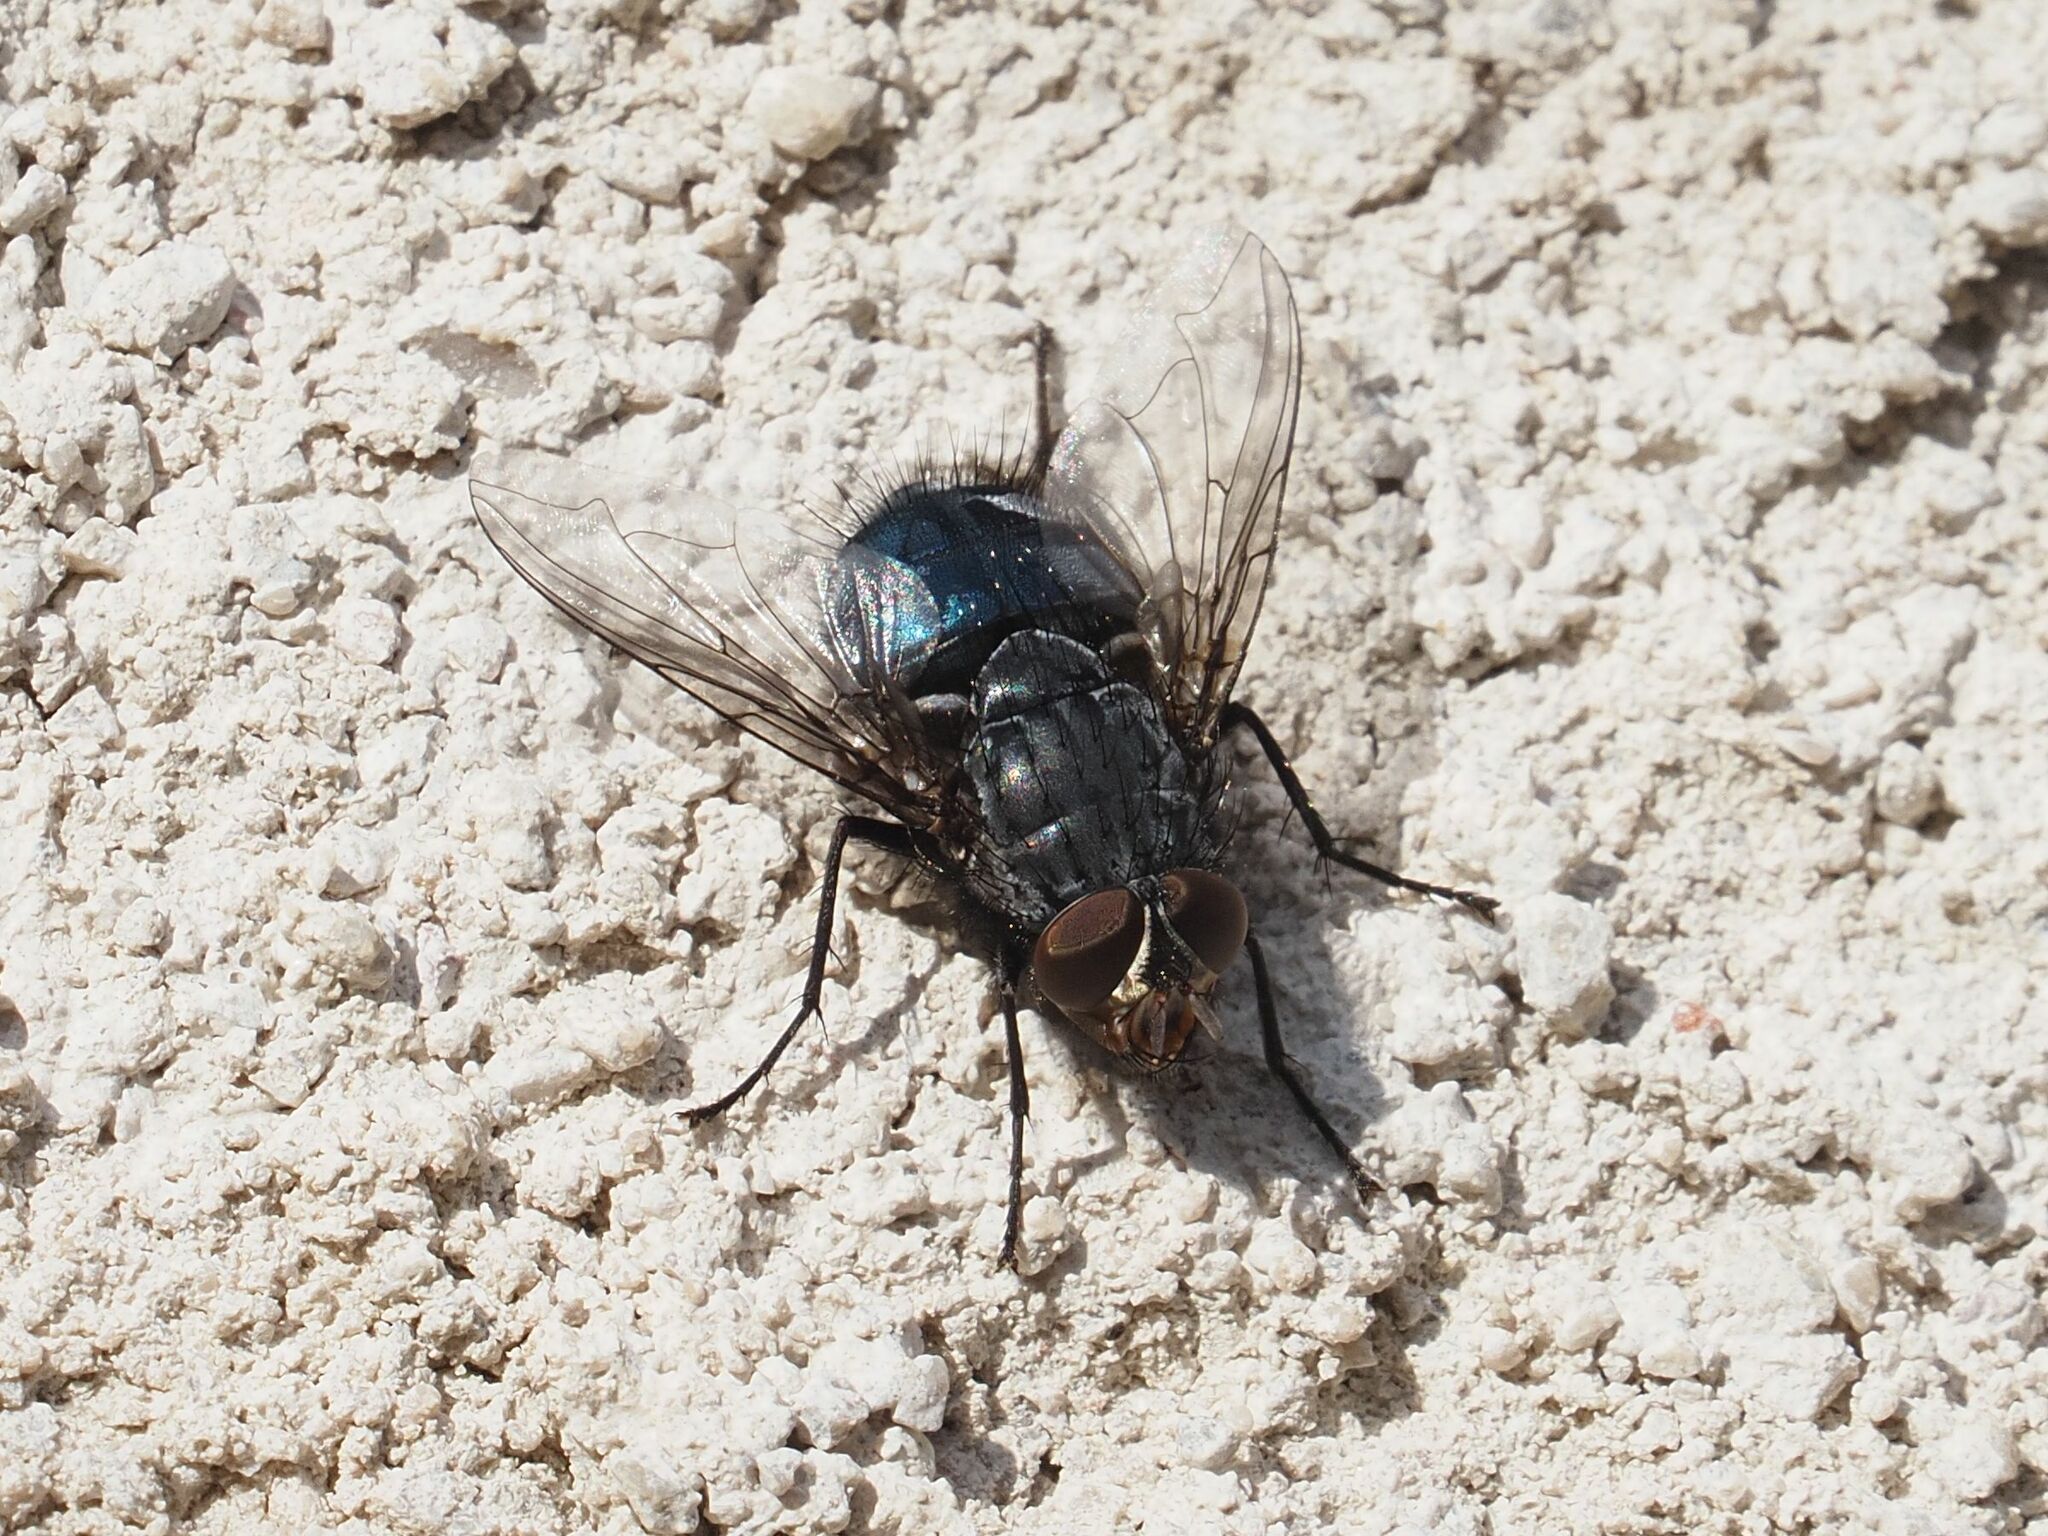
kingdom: Animalia
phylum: Arthropoda
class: Insecta
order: Diptera
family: Calliphoridae
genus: Calliphora
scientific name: Calliphora vicina
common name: Common blow flie
